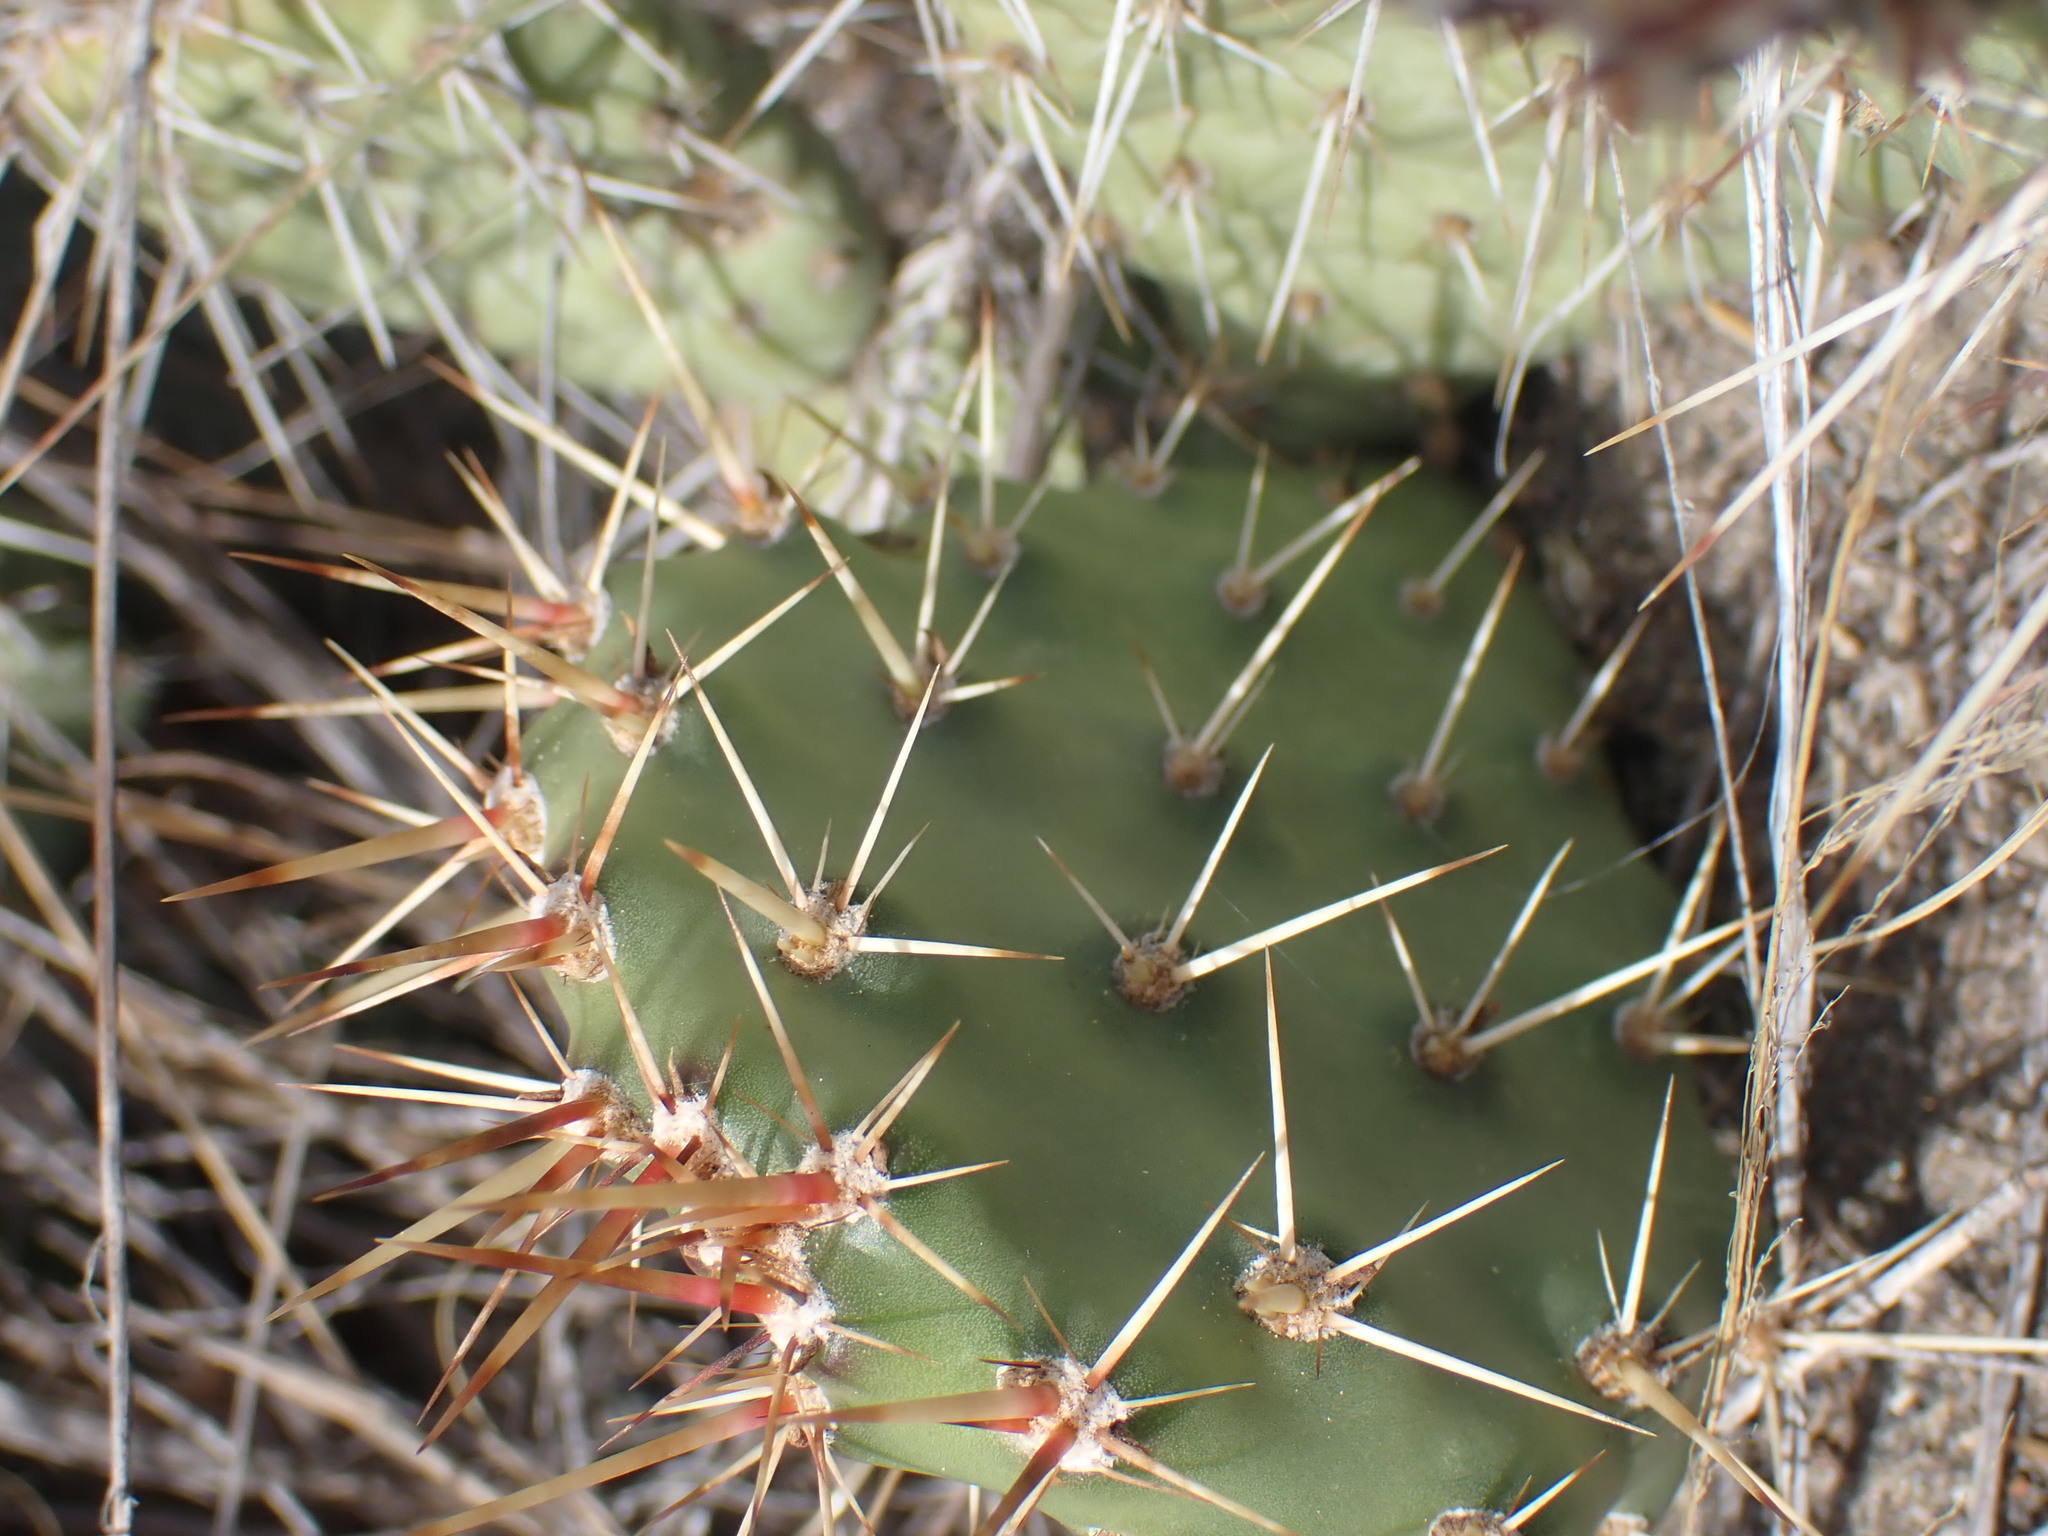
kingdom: Plantae
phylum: Tracheophyta
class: Magnoliopsida
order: Caryophyllales
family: Cactaceae
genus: Opuntia
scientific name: Opuntia columbiana
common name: Columbia prickly-pear
